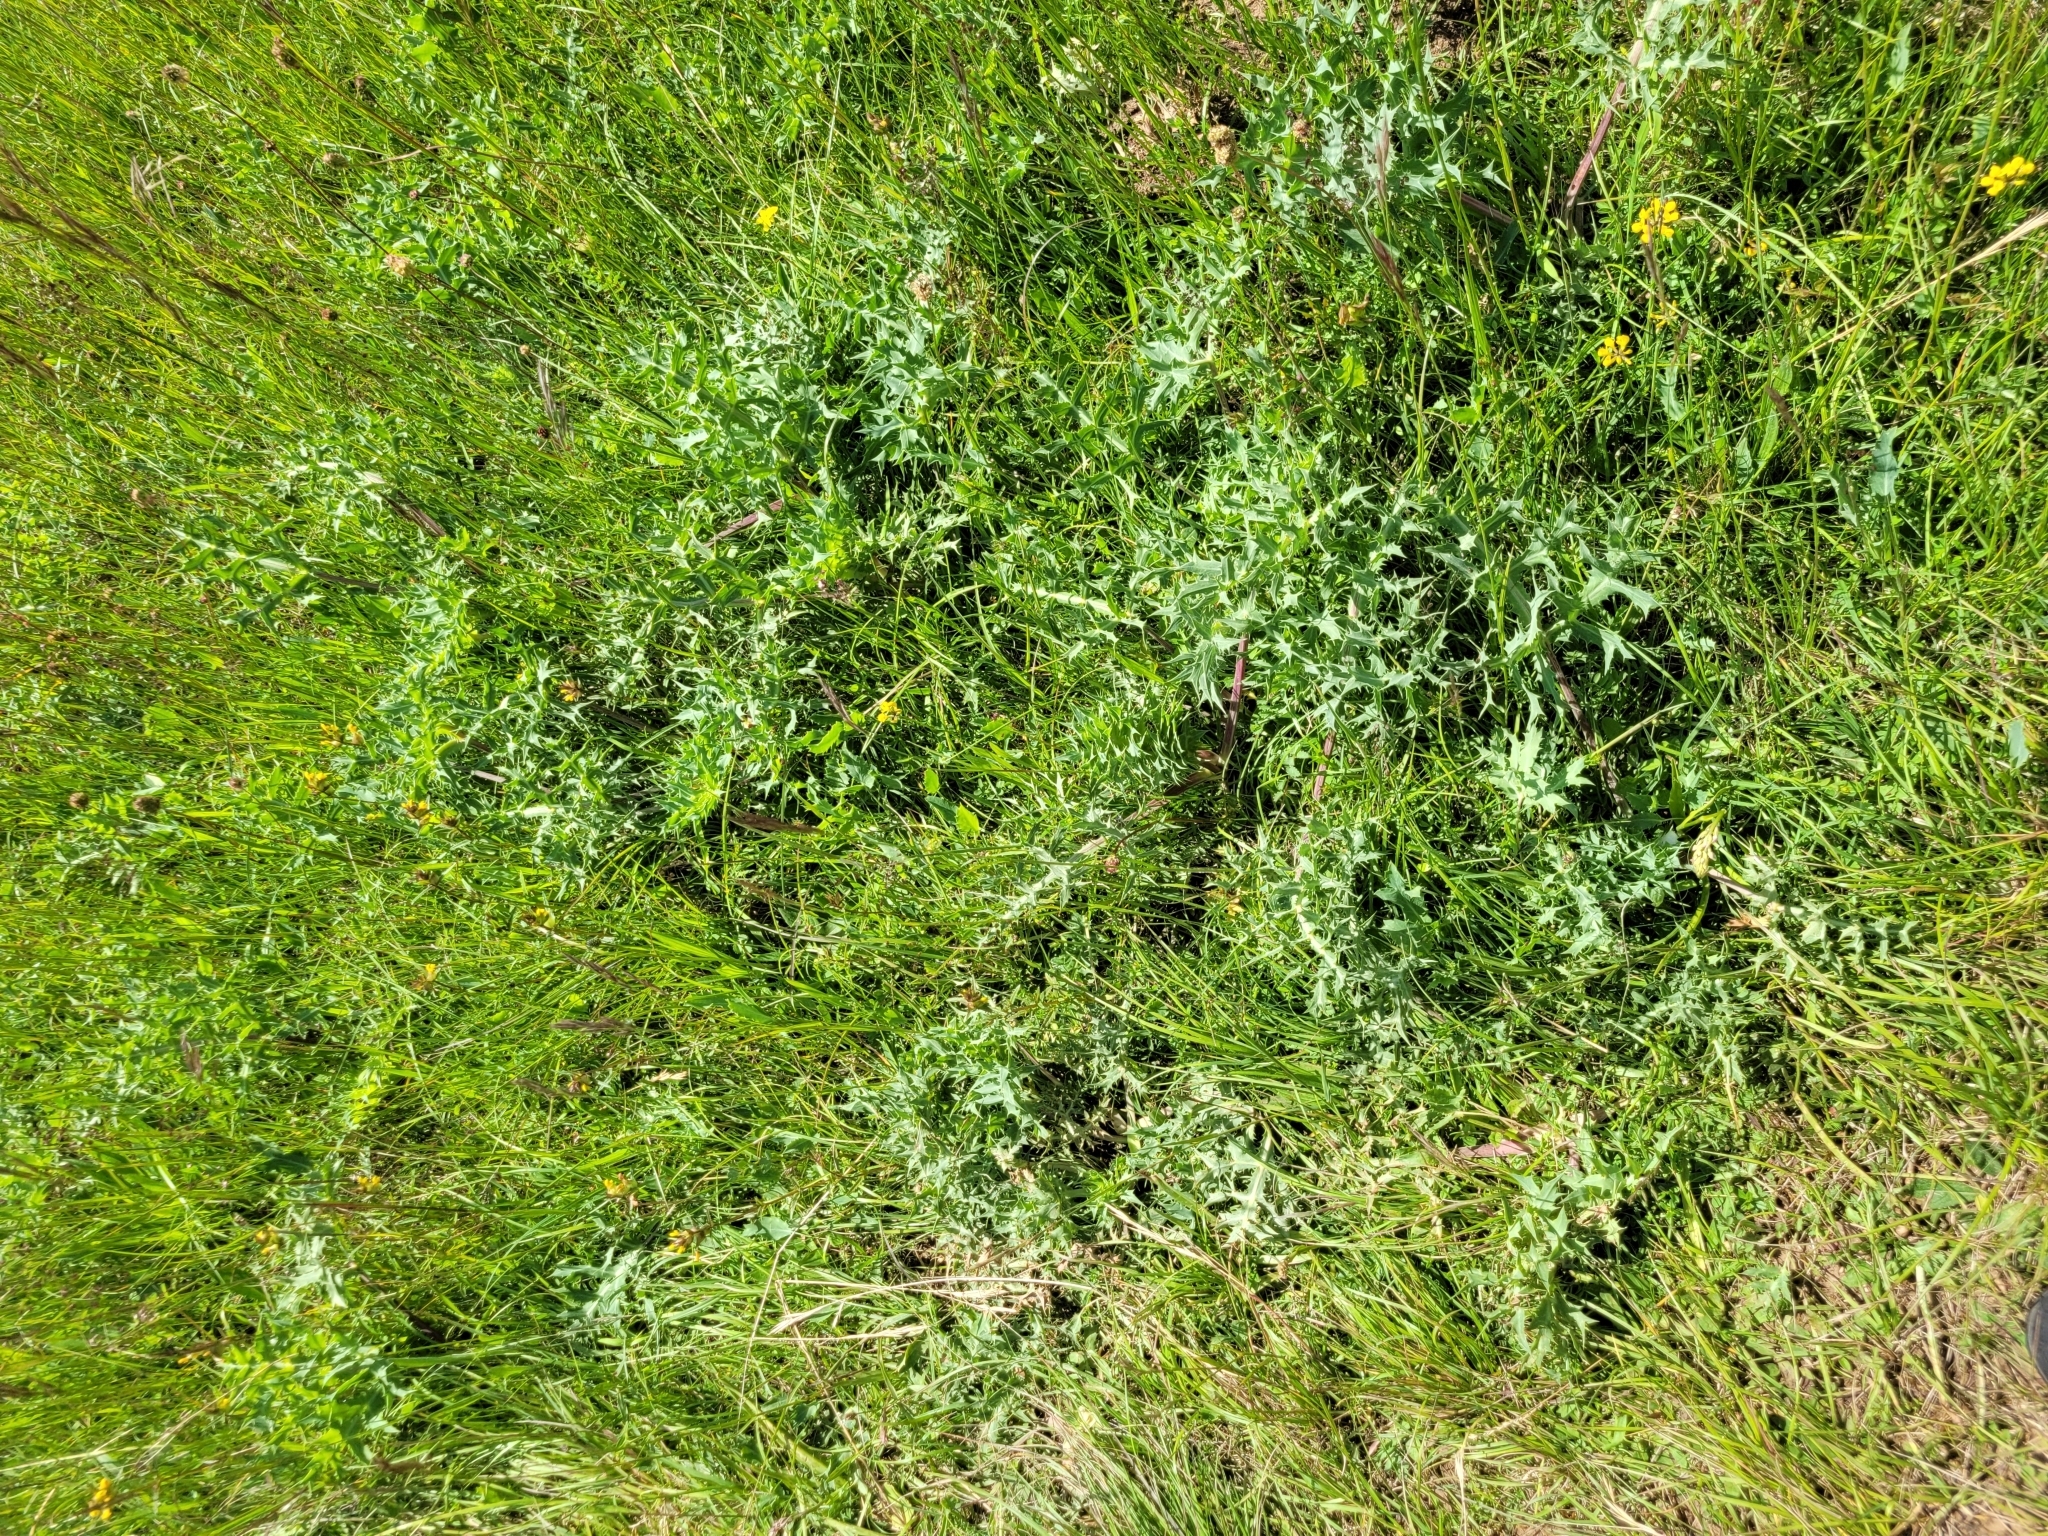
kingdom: Plantae
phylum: Tracheophyta
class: Magnoliopsida
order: Apiales
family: Apiaceae
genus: Eryngium
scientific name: Eryngium campestre
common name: Field eryngo
